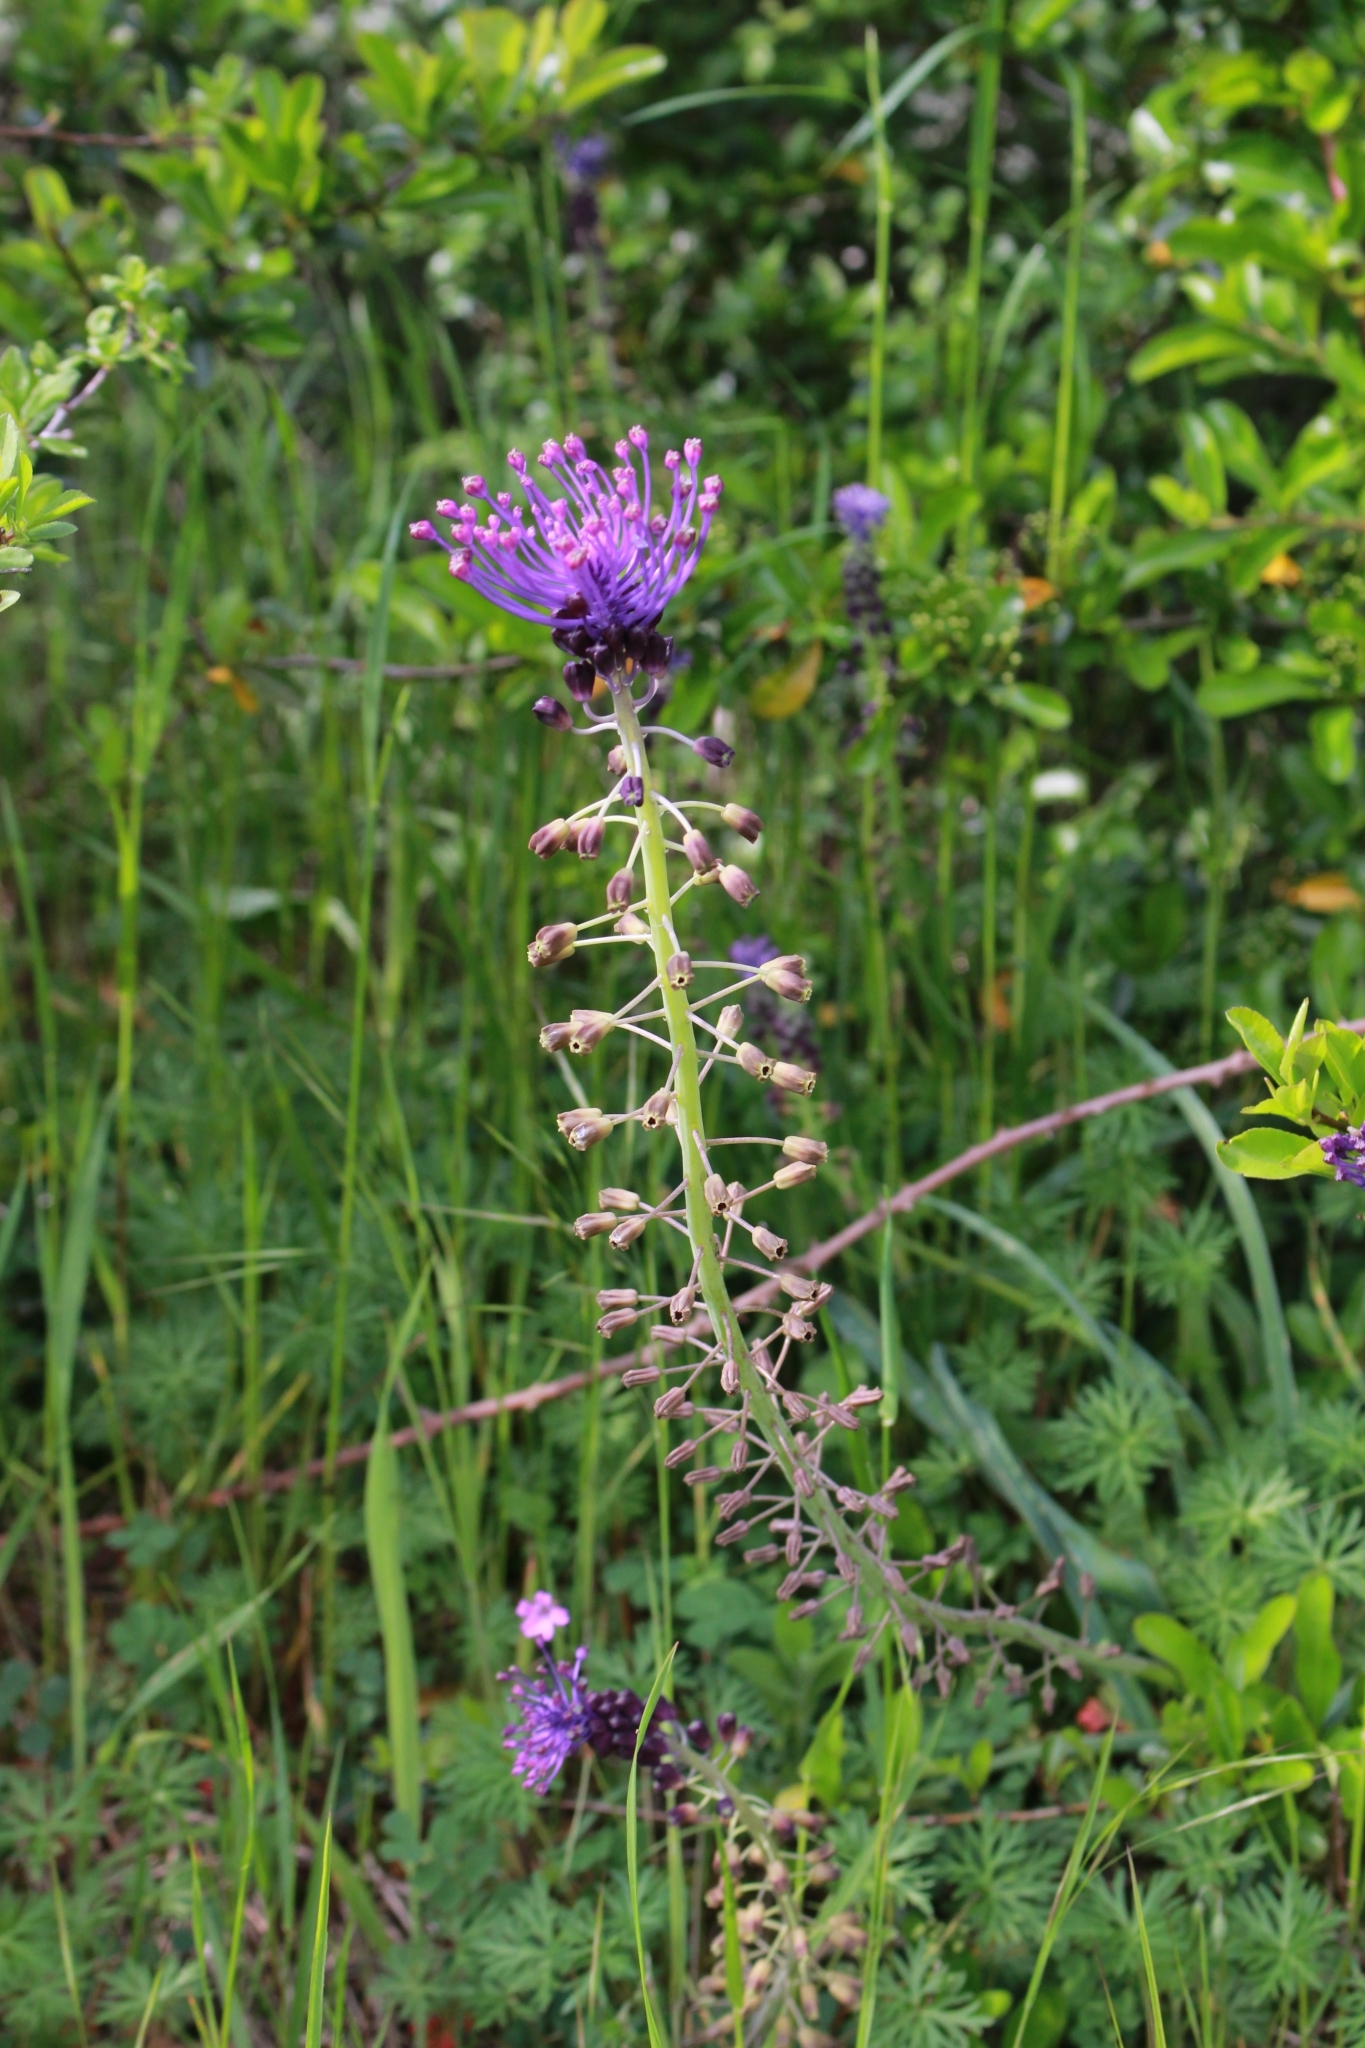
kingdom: Plantae
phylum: Tracheophyta
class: Liliopsida
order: Asparagales
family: Asparagaceae
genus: Muscari
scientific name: Muscari comosum
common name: Tassel hyacinth
